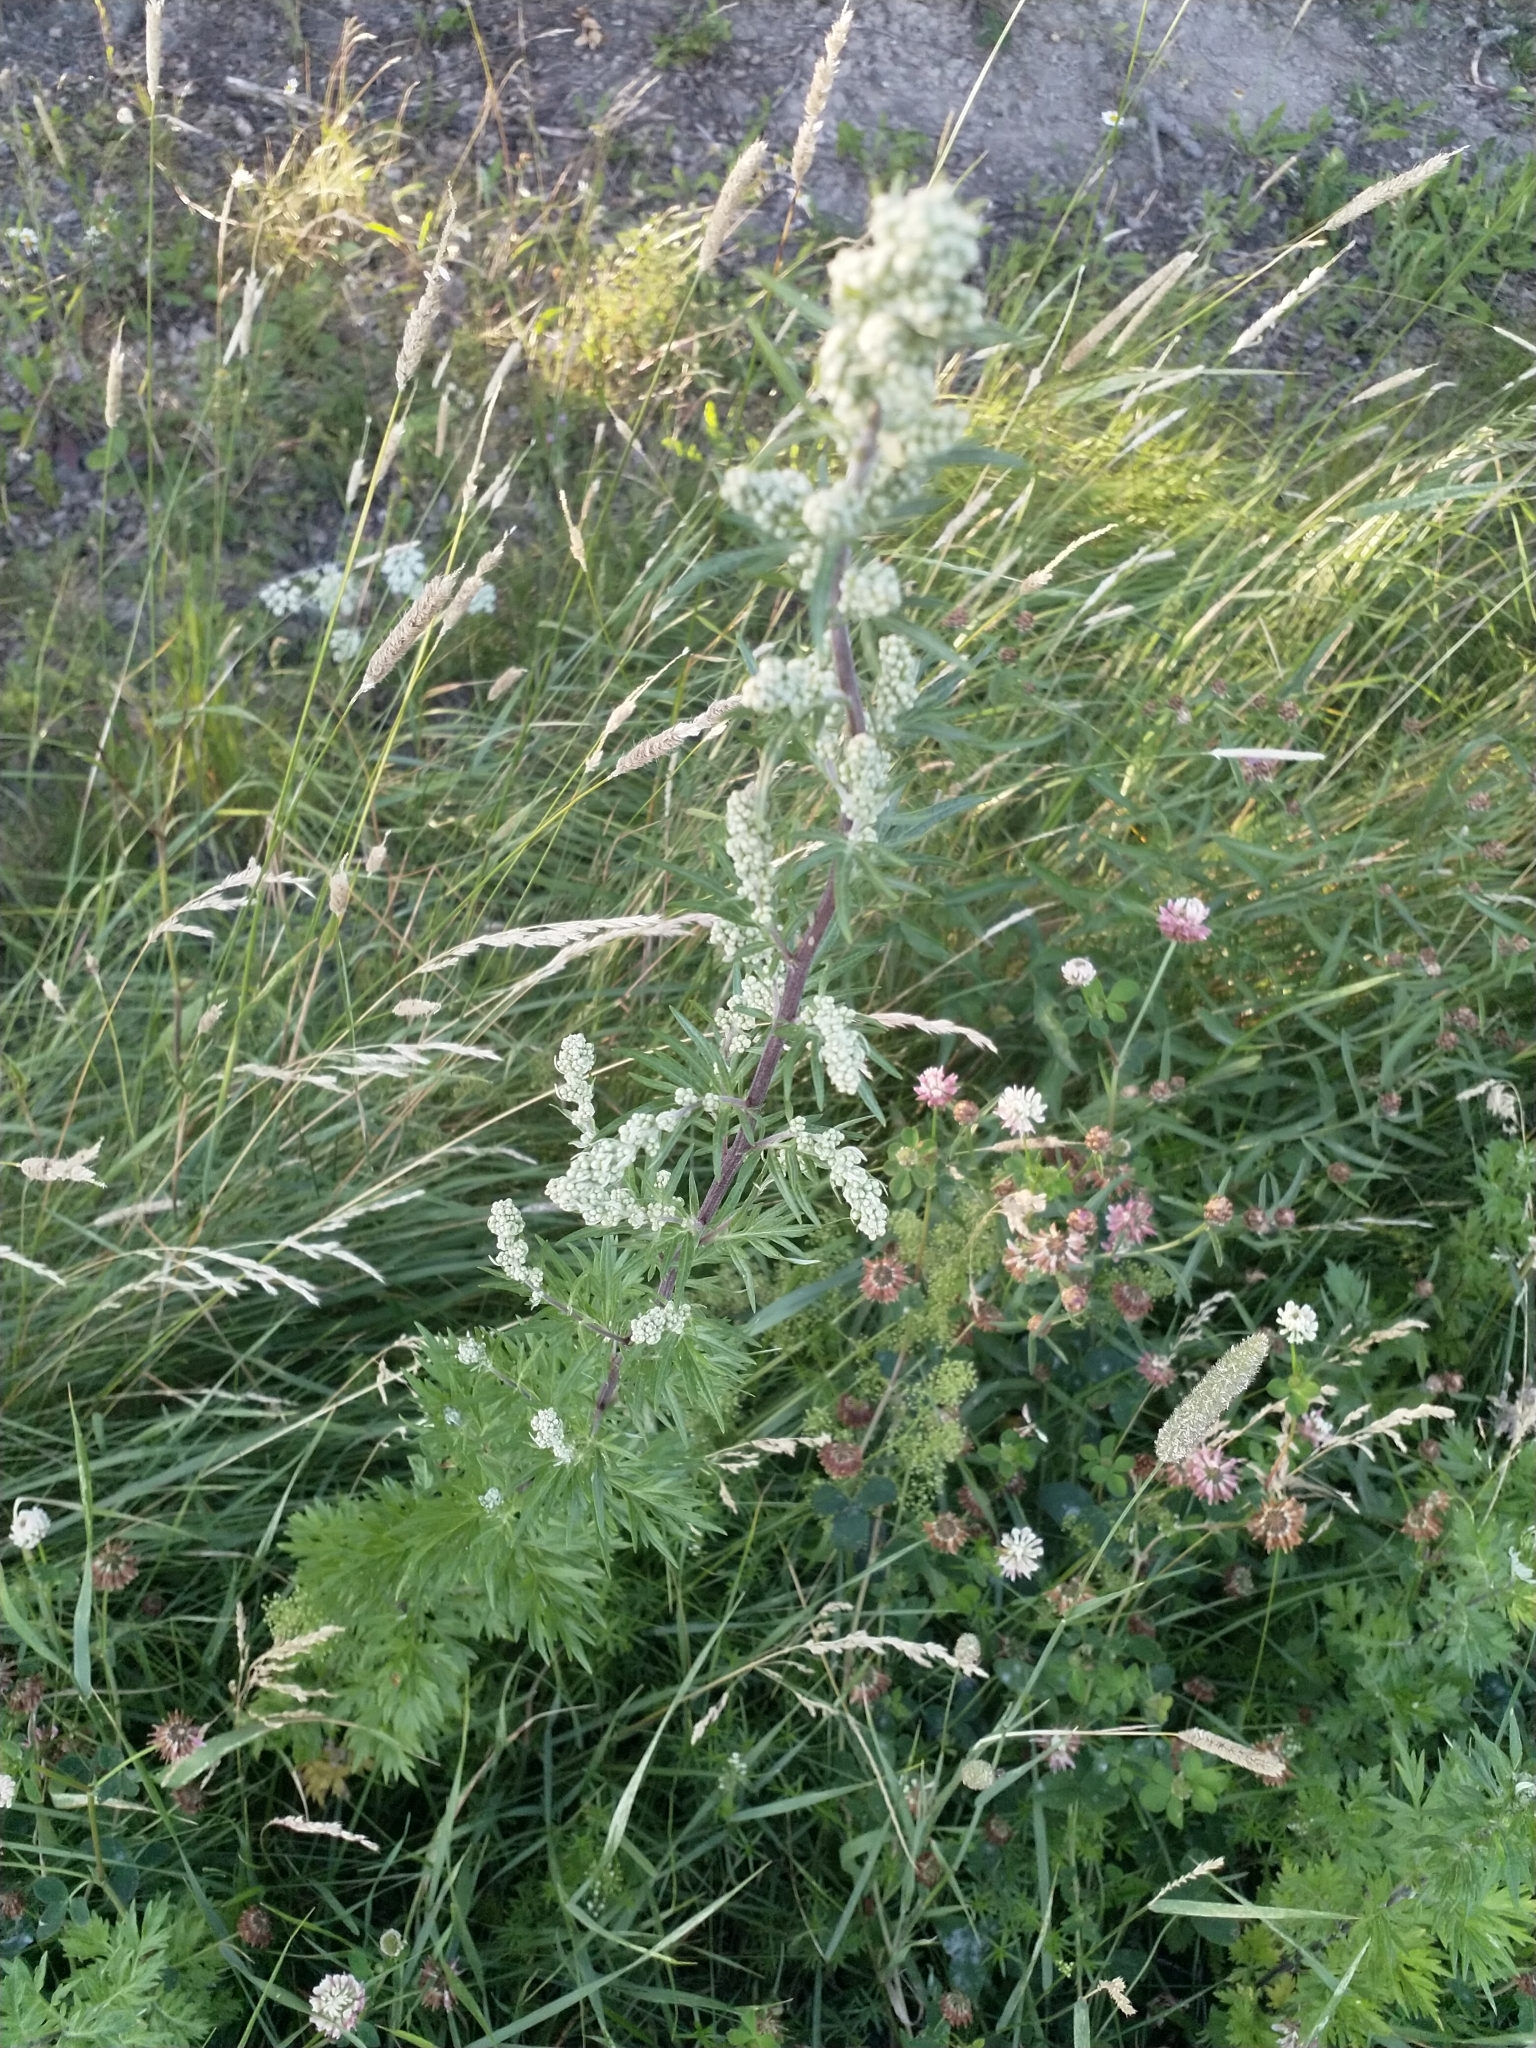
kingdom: Plantae
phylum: Tracheophyta
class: Magnoliopsida
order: Asterales
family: Asteraceae
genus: Artemisia
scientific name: Artemisia vulgaris
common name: Mugwort
